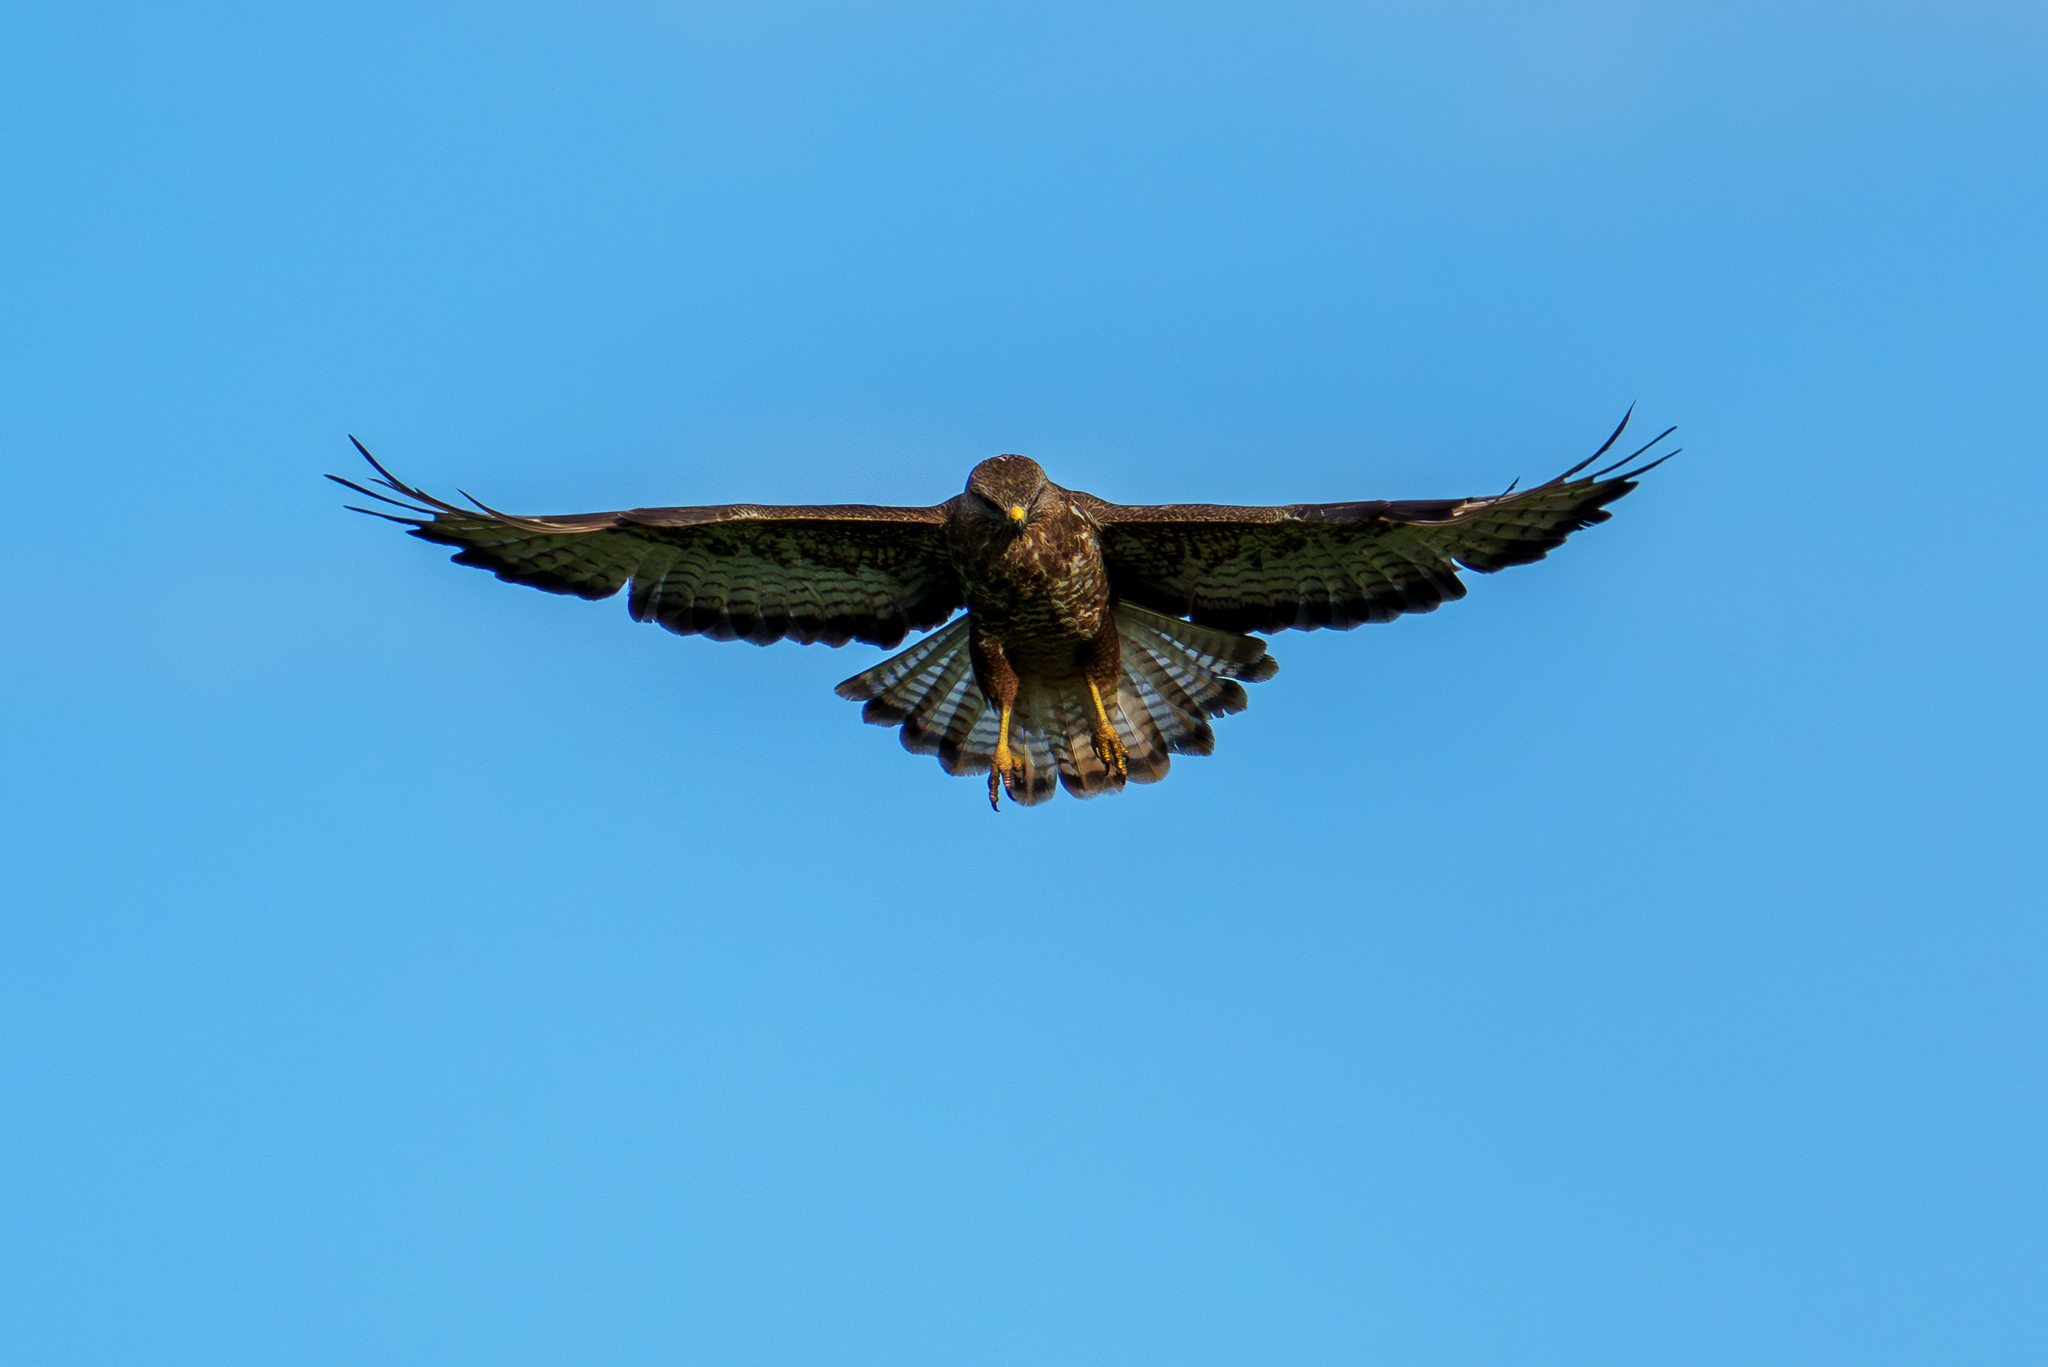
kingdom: Animalia
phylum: Chordata
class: Aves
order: Accipitriformes
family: Accipitridae
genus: Buteo
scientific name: Buteo buteo
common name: Common buzzard
